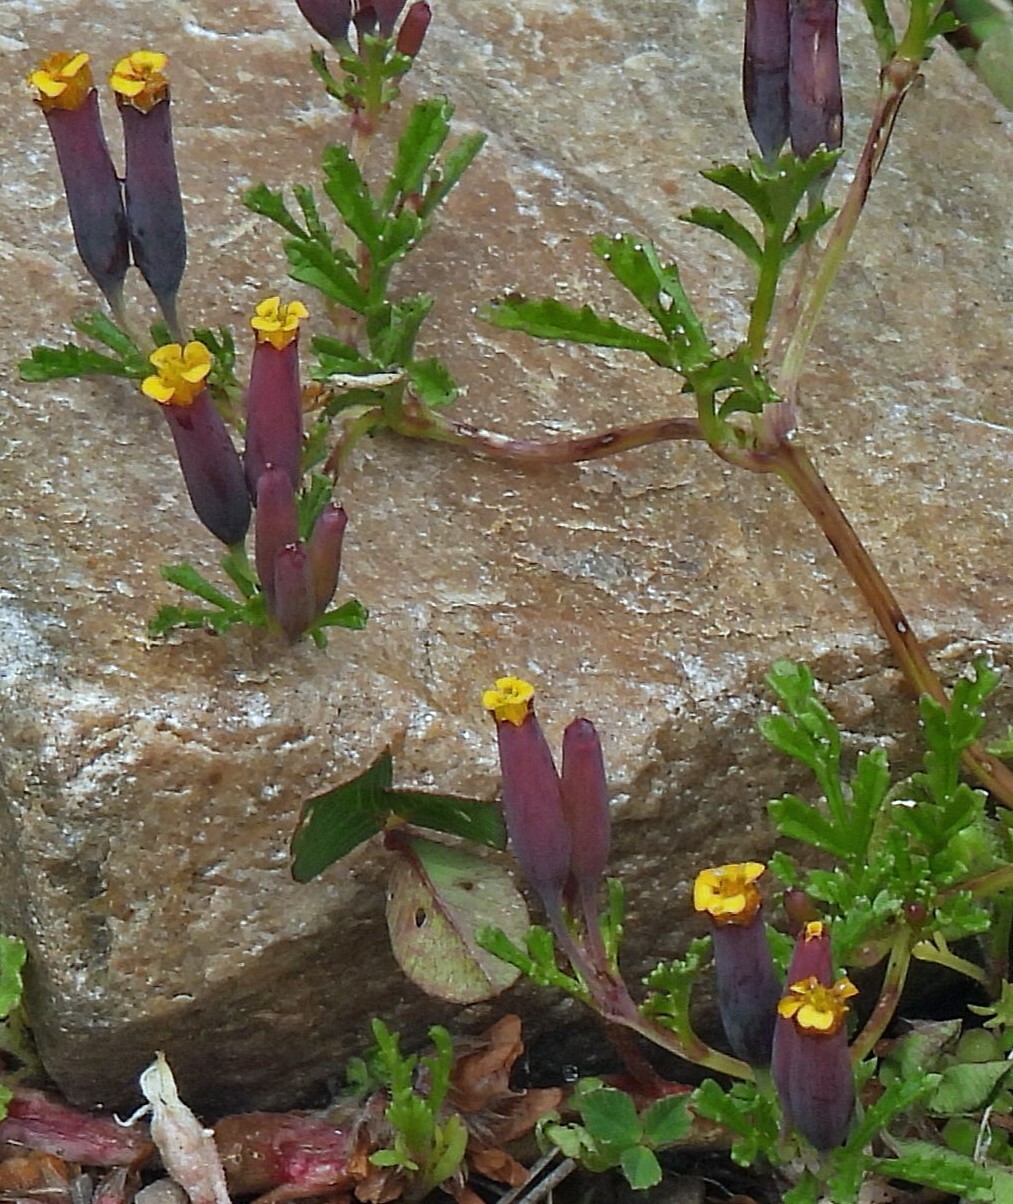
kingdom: Plantae
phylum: Tracheophyta
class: Magnoliopsida
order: Asterales
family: Asteraceae
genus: Tagetes
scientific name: Tagetes multiflora
